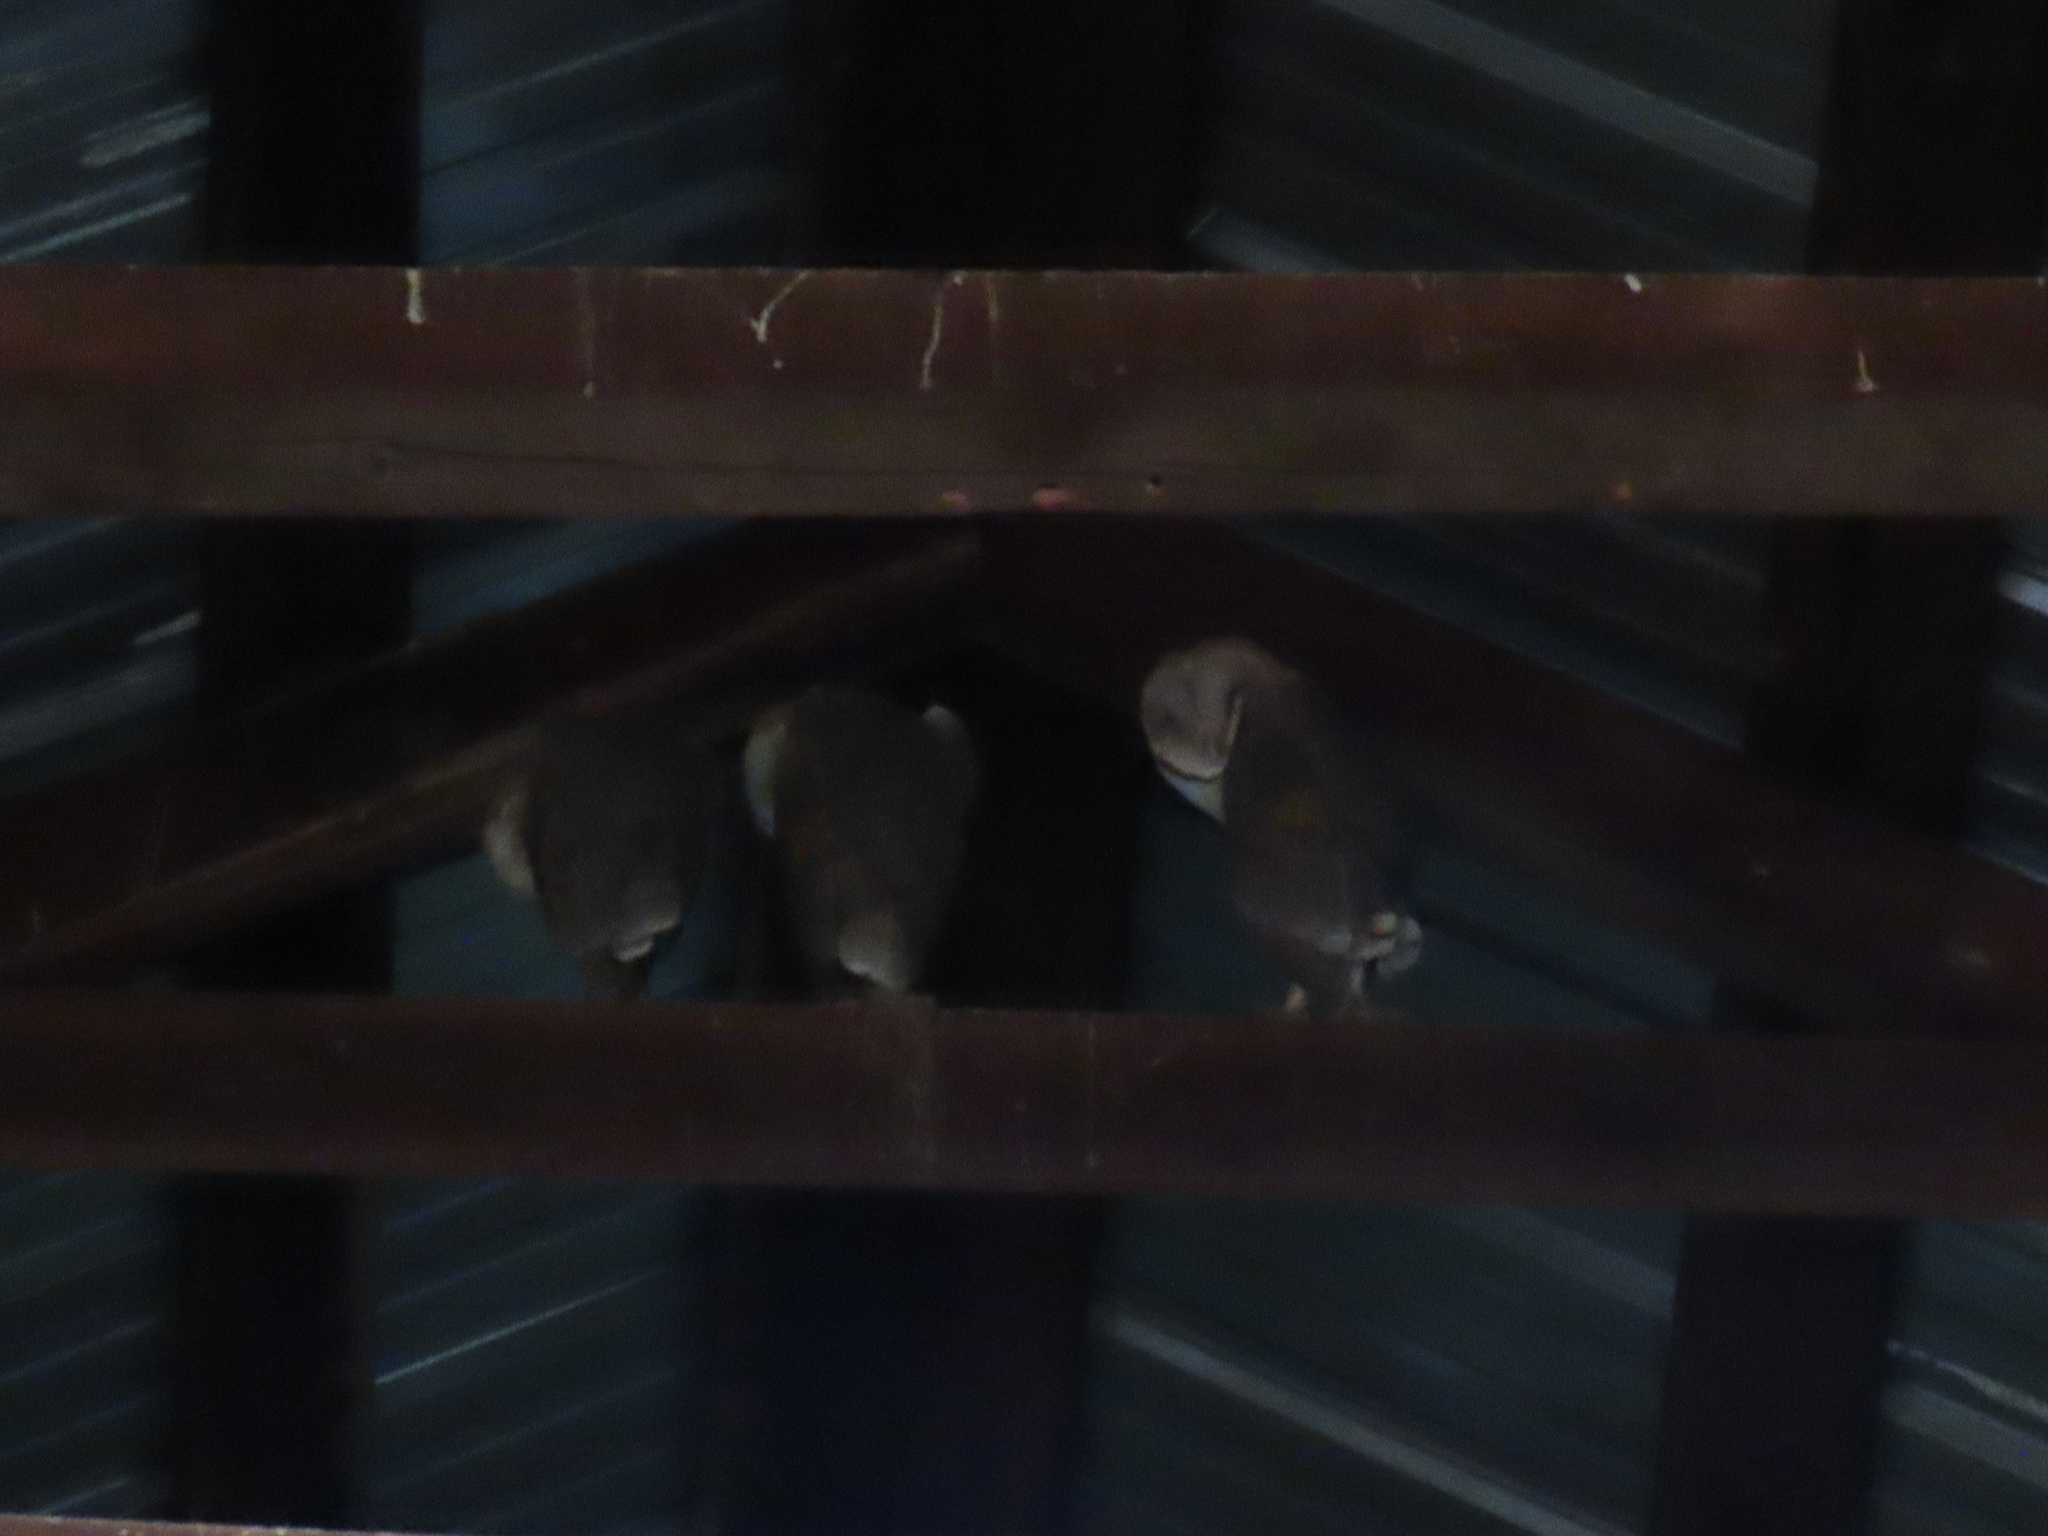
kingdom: Animalia
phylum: Chordata
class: Aves
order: Strigiformes
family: Tytonidae
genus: Tyto
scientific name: Tyto alba
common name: Barn owl
